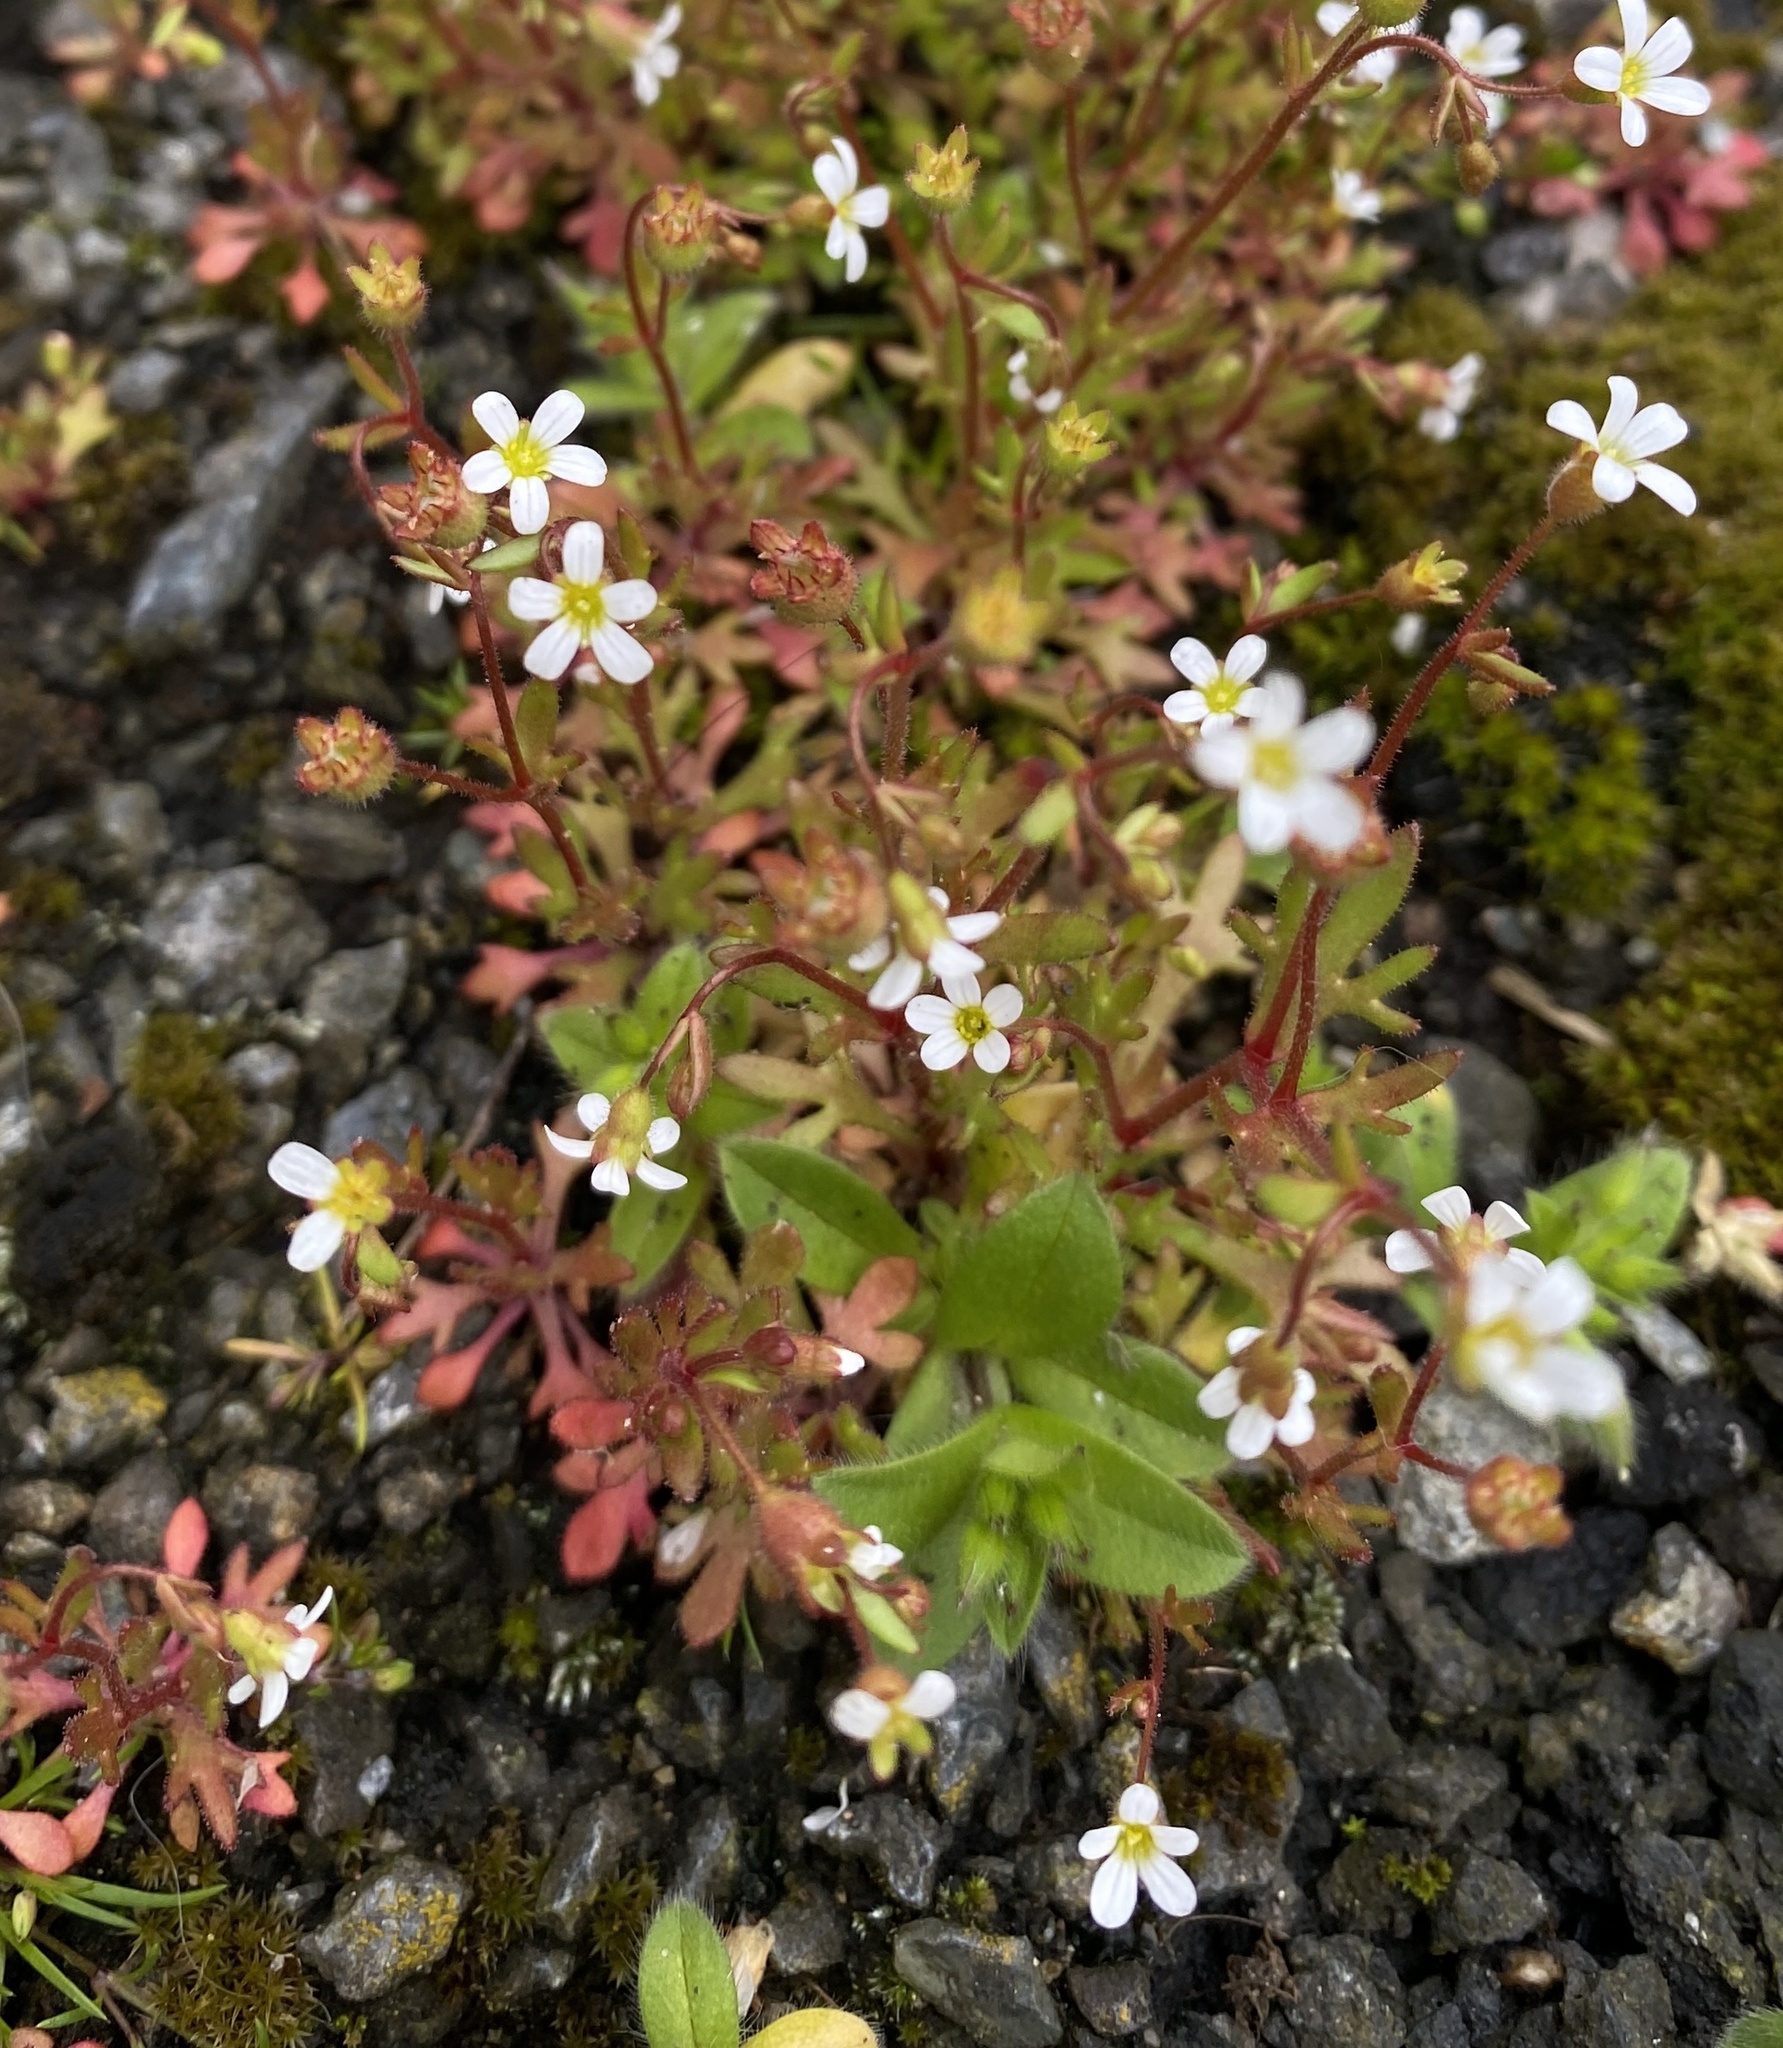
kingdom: Plantae
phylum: Tracheophyta
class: Magnoliopsida
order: Saxifragales
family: Saxifragaceae
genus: Saxifraga
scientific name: Saxifraga tridactylites
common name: Rue-leaved saxifrage
